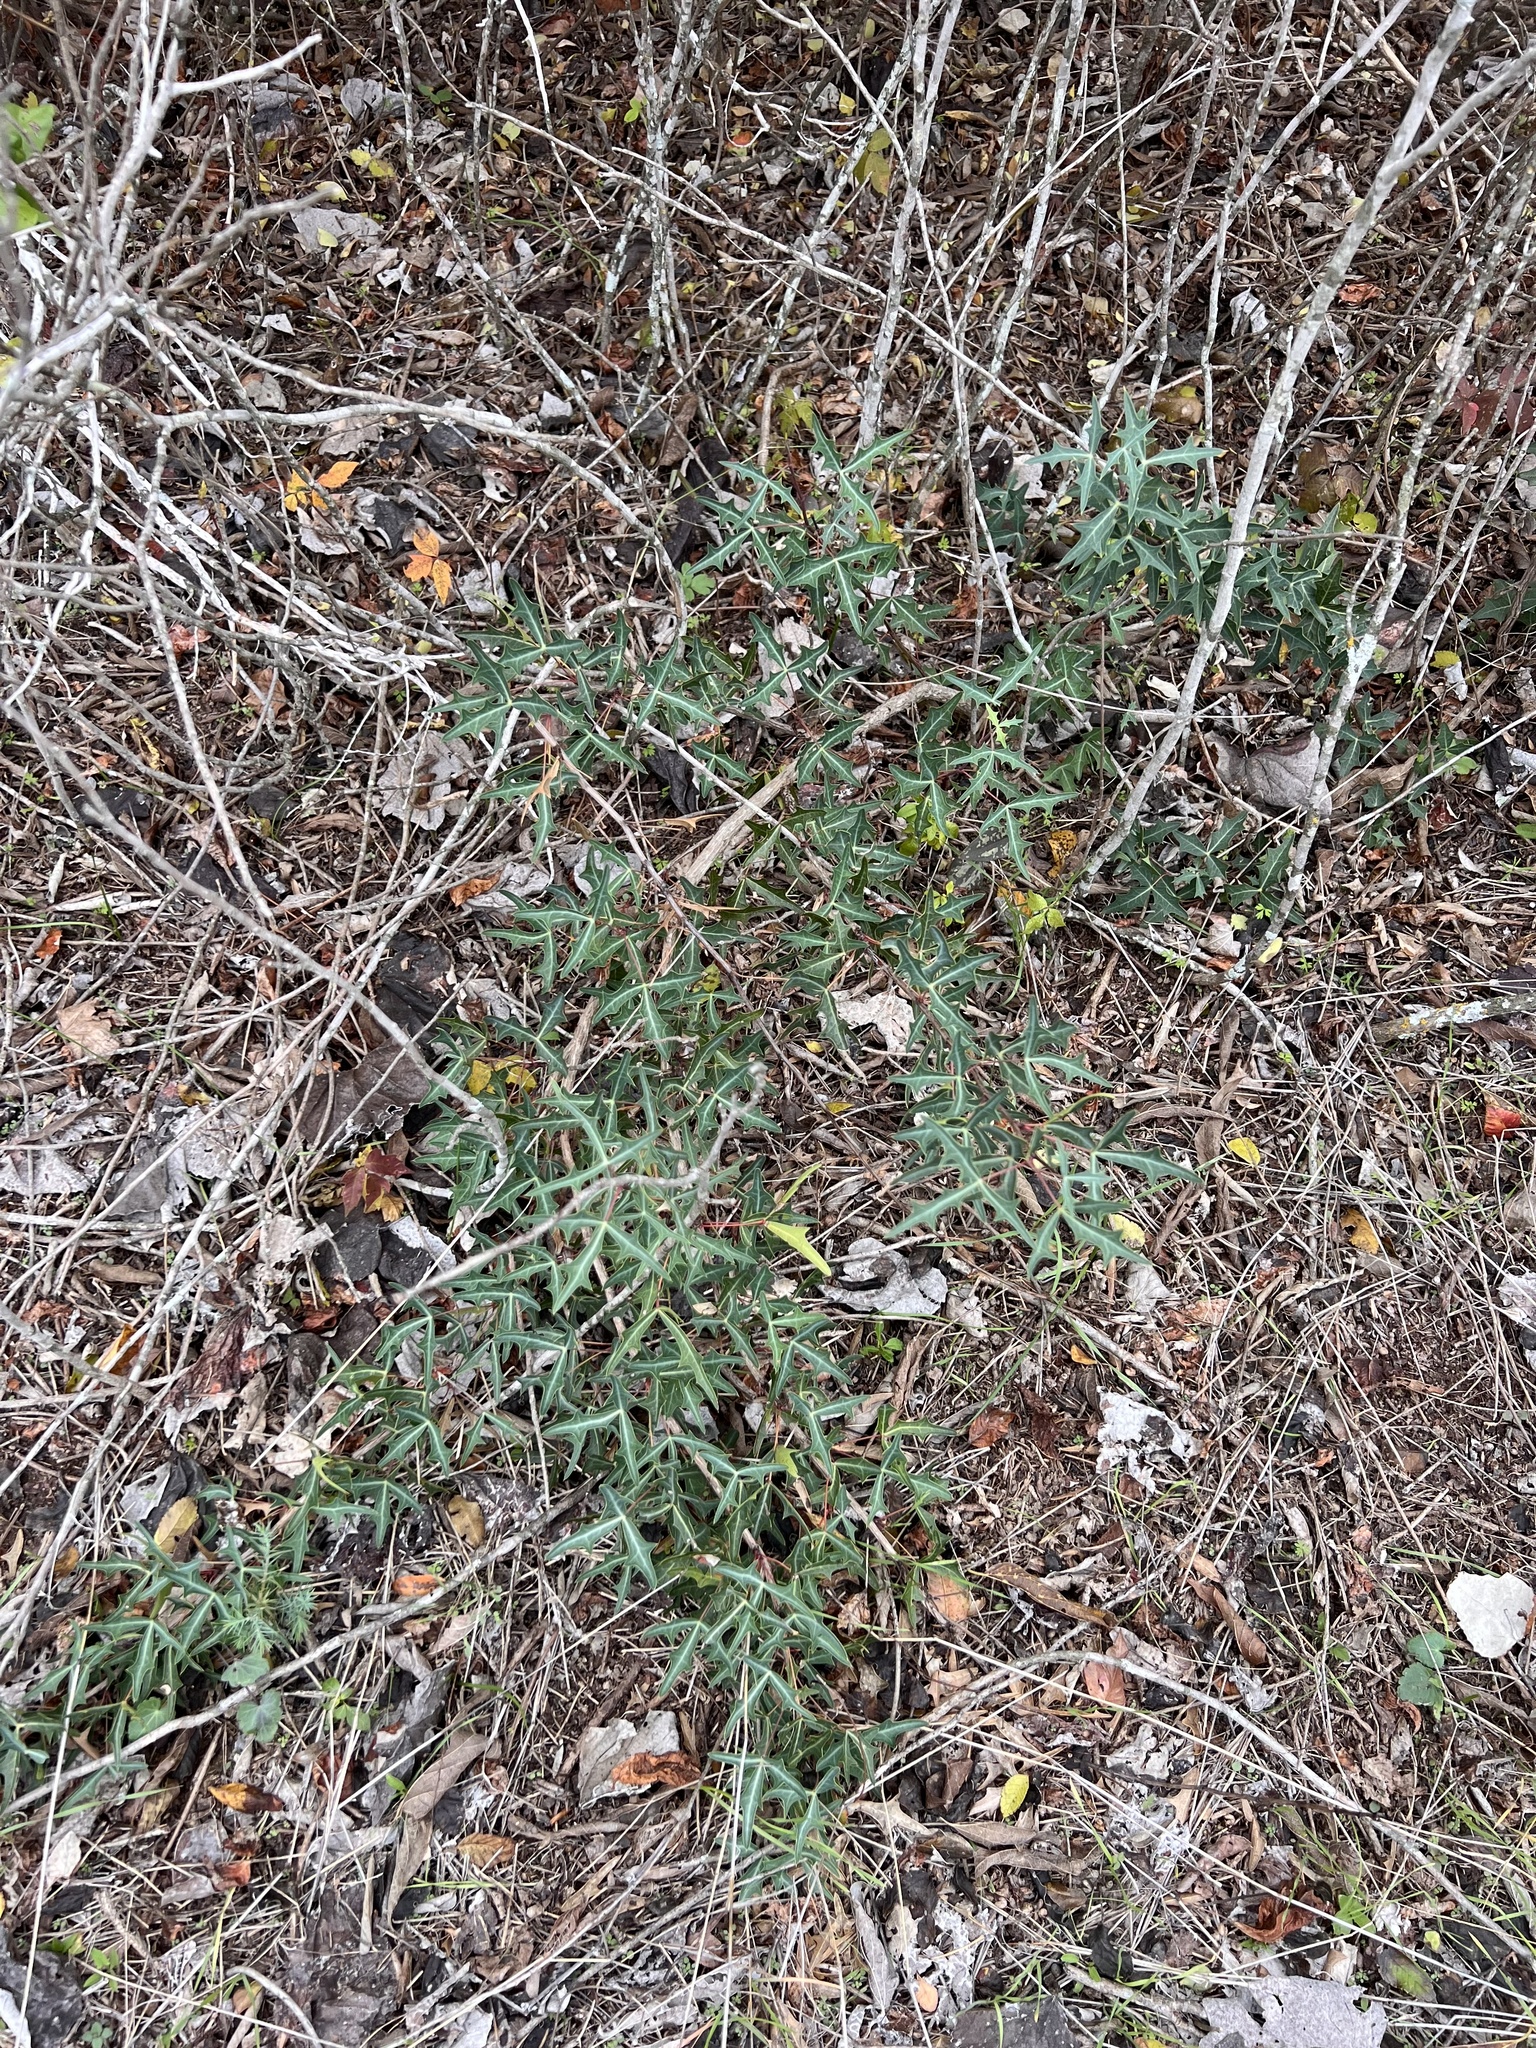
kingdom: Plantae
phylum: Tracheophyta
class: Magnoliopsida
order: Ranunculales
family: Berberidaceae
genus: Alloberberis
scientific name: Alloberberis trifoliolata
